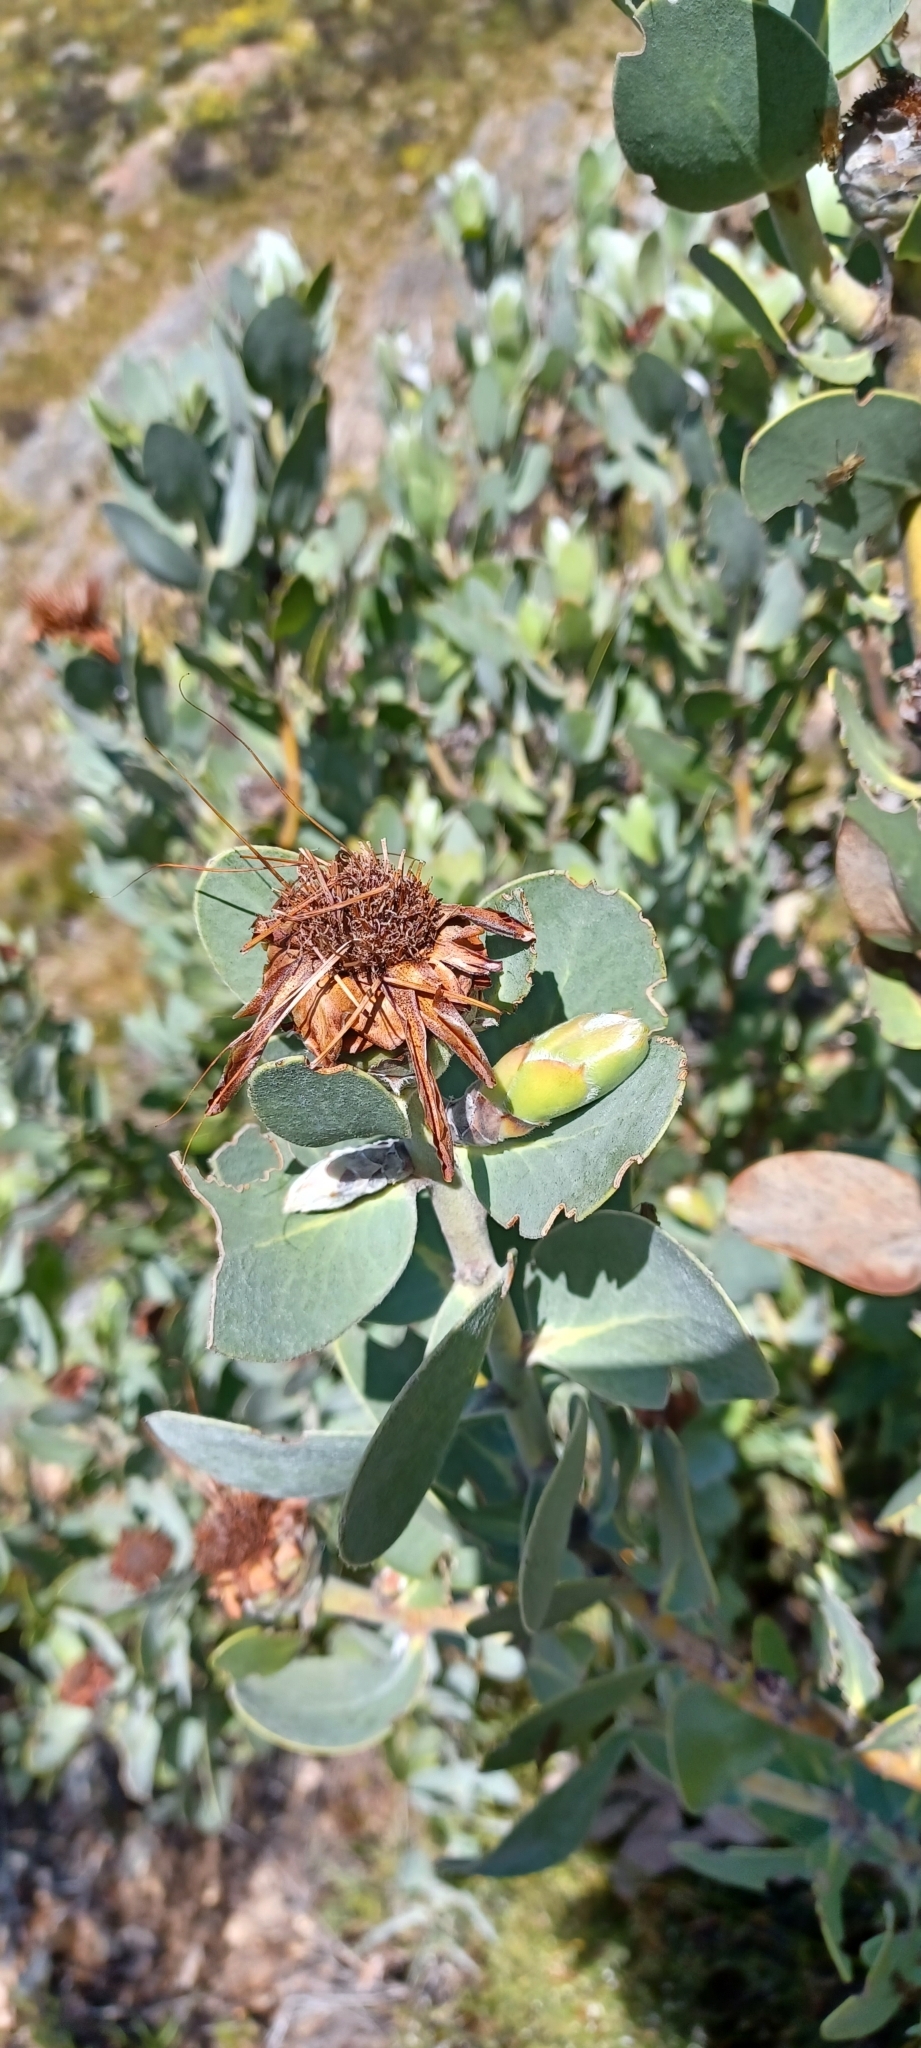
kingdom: Plantae
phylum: Tracheophyta
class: Magnoliopsida
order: Proteales
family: Proteaceae
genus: Protea
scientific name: Protea punctata
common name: Water sugarbush
